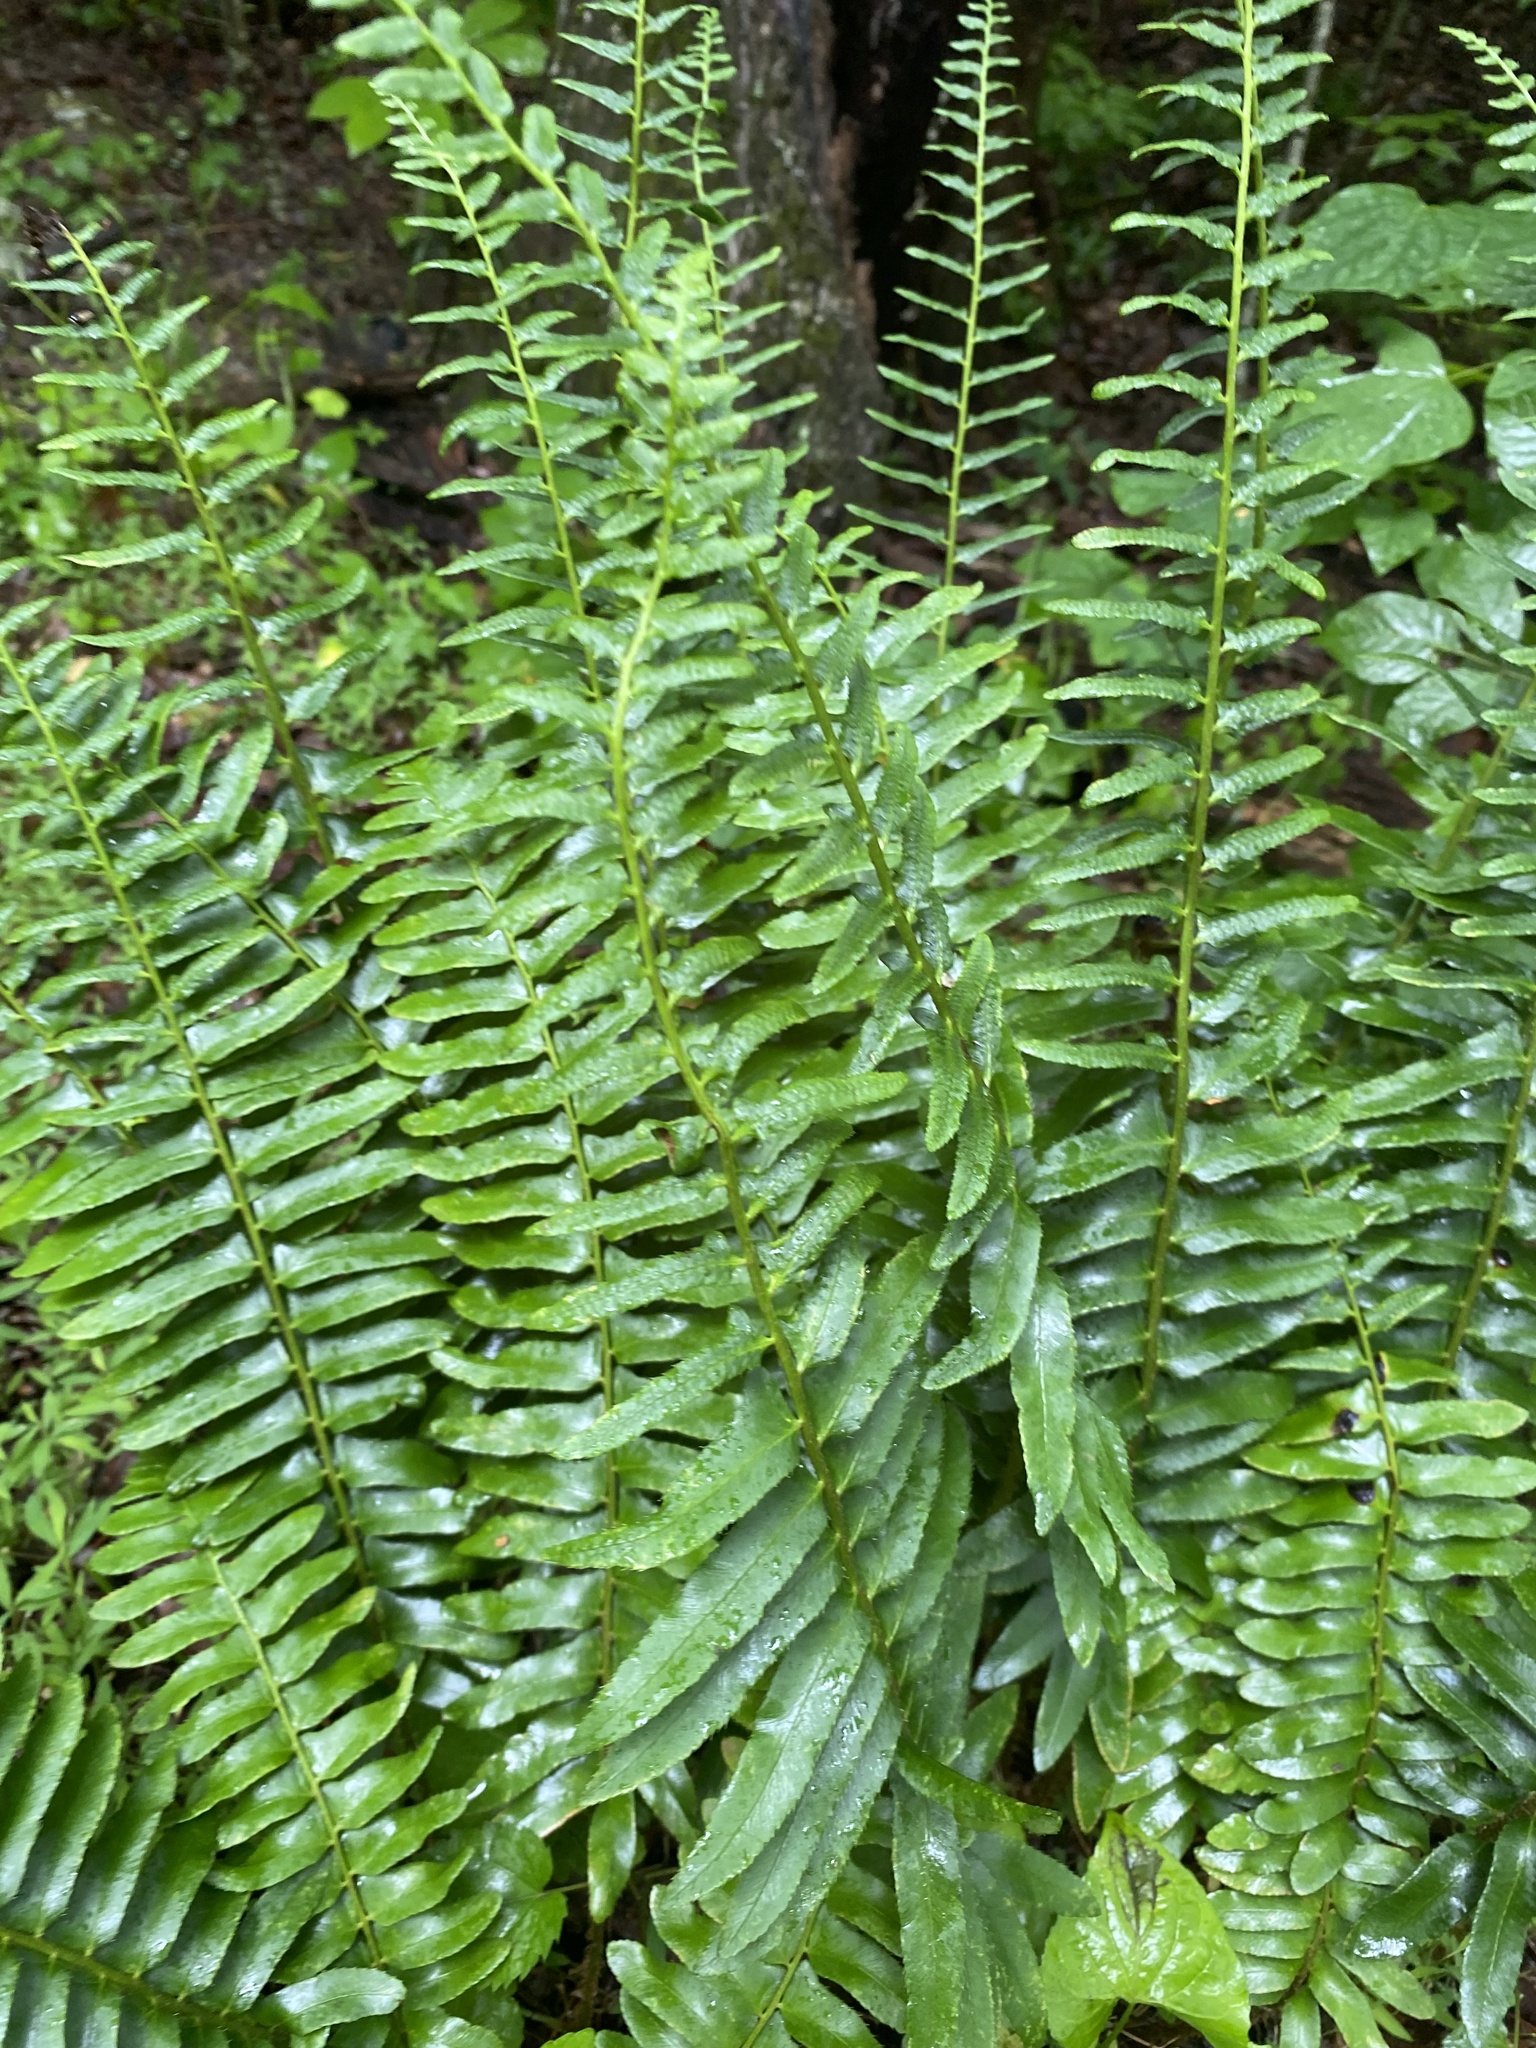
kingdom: Plantae
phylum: Tracheophyta
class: Polypodiopsida
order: Polypodiales
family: Dryopteridaceae
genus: Polystichum
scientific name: Polystichum acrostichoides
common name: Christmas fern
